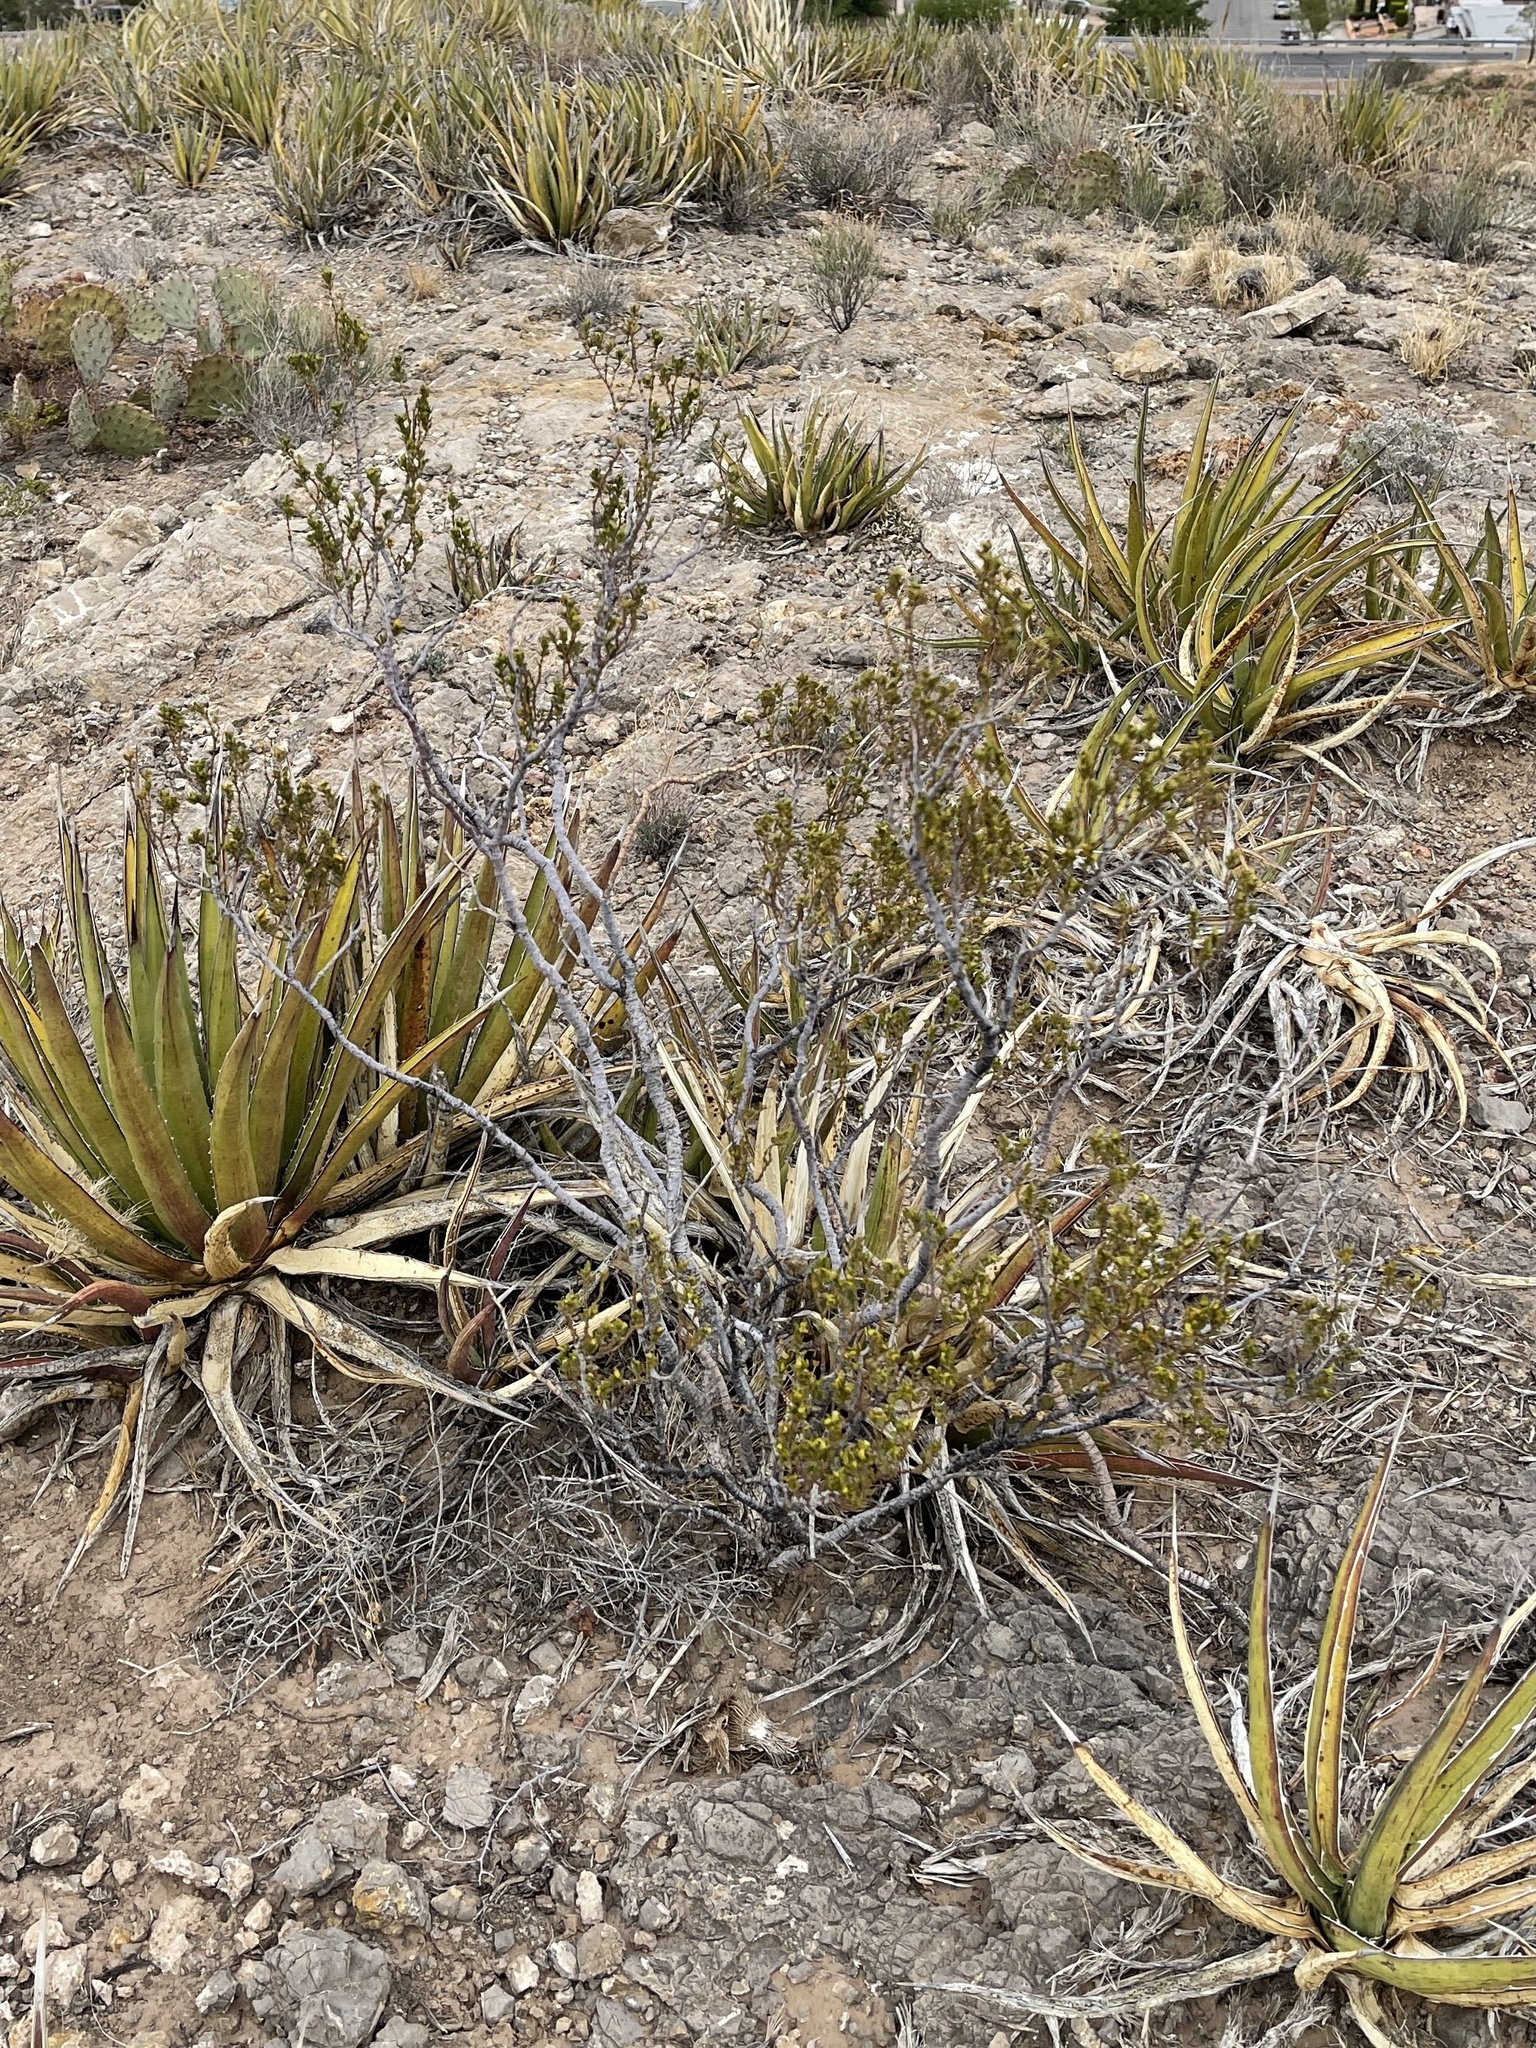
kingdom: Plantae
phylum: Tracheophyta
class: Magnoliopsida
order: Zygophyllales
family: Zygophyllaceae
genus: Larrea
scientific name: Larrea tridentata
